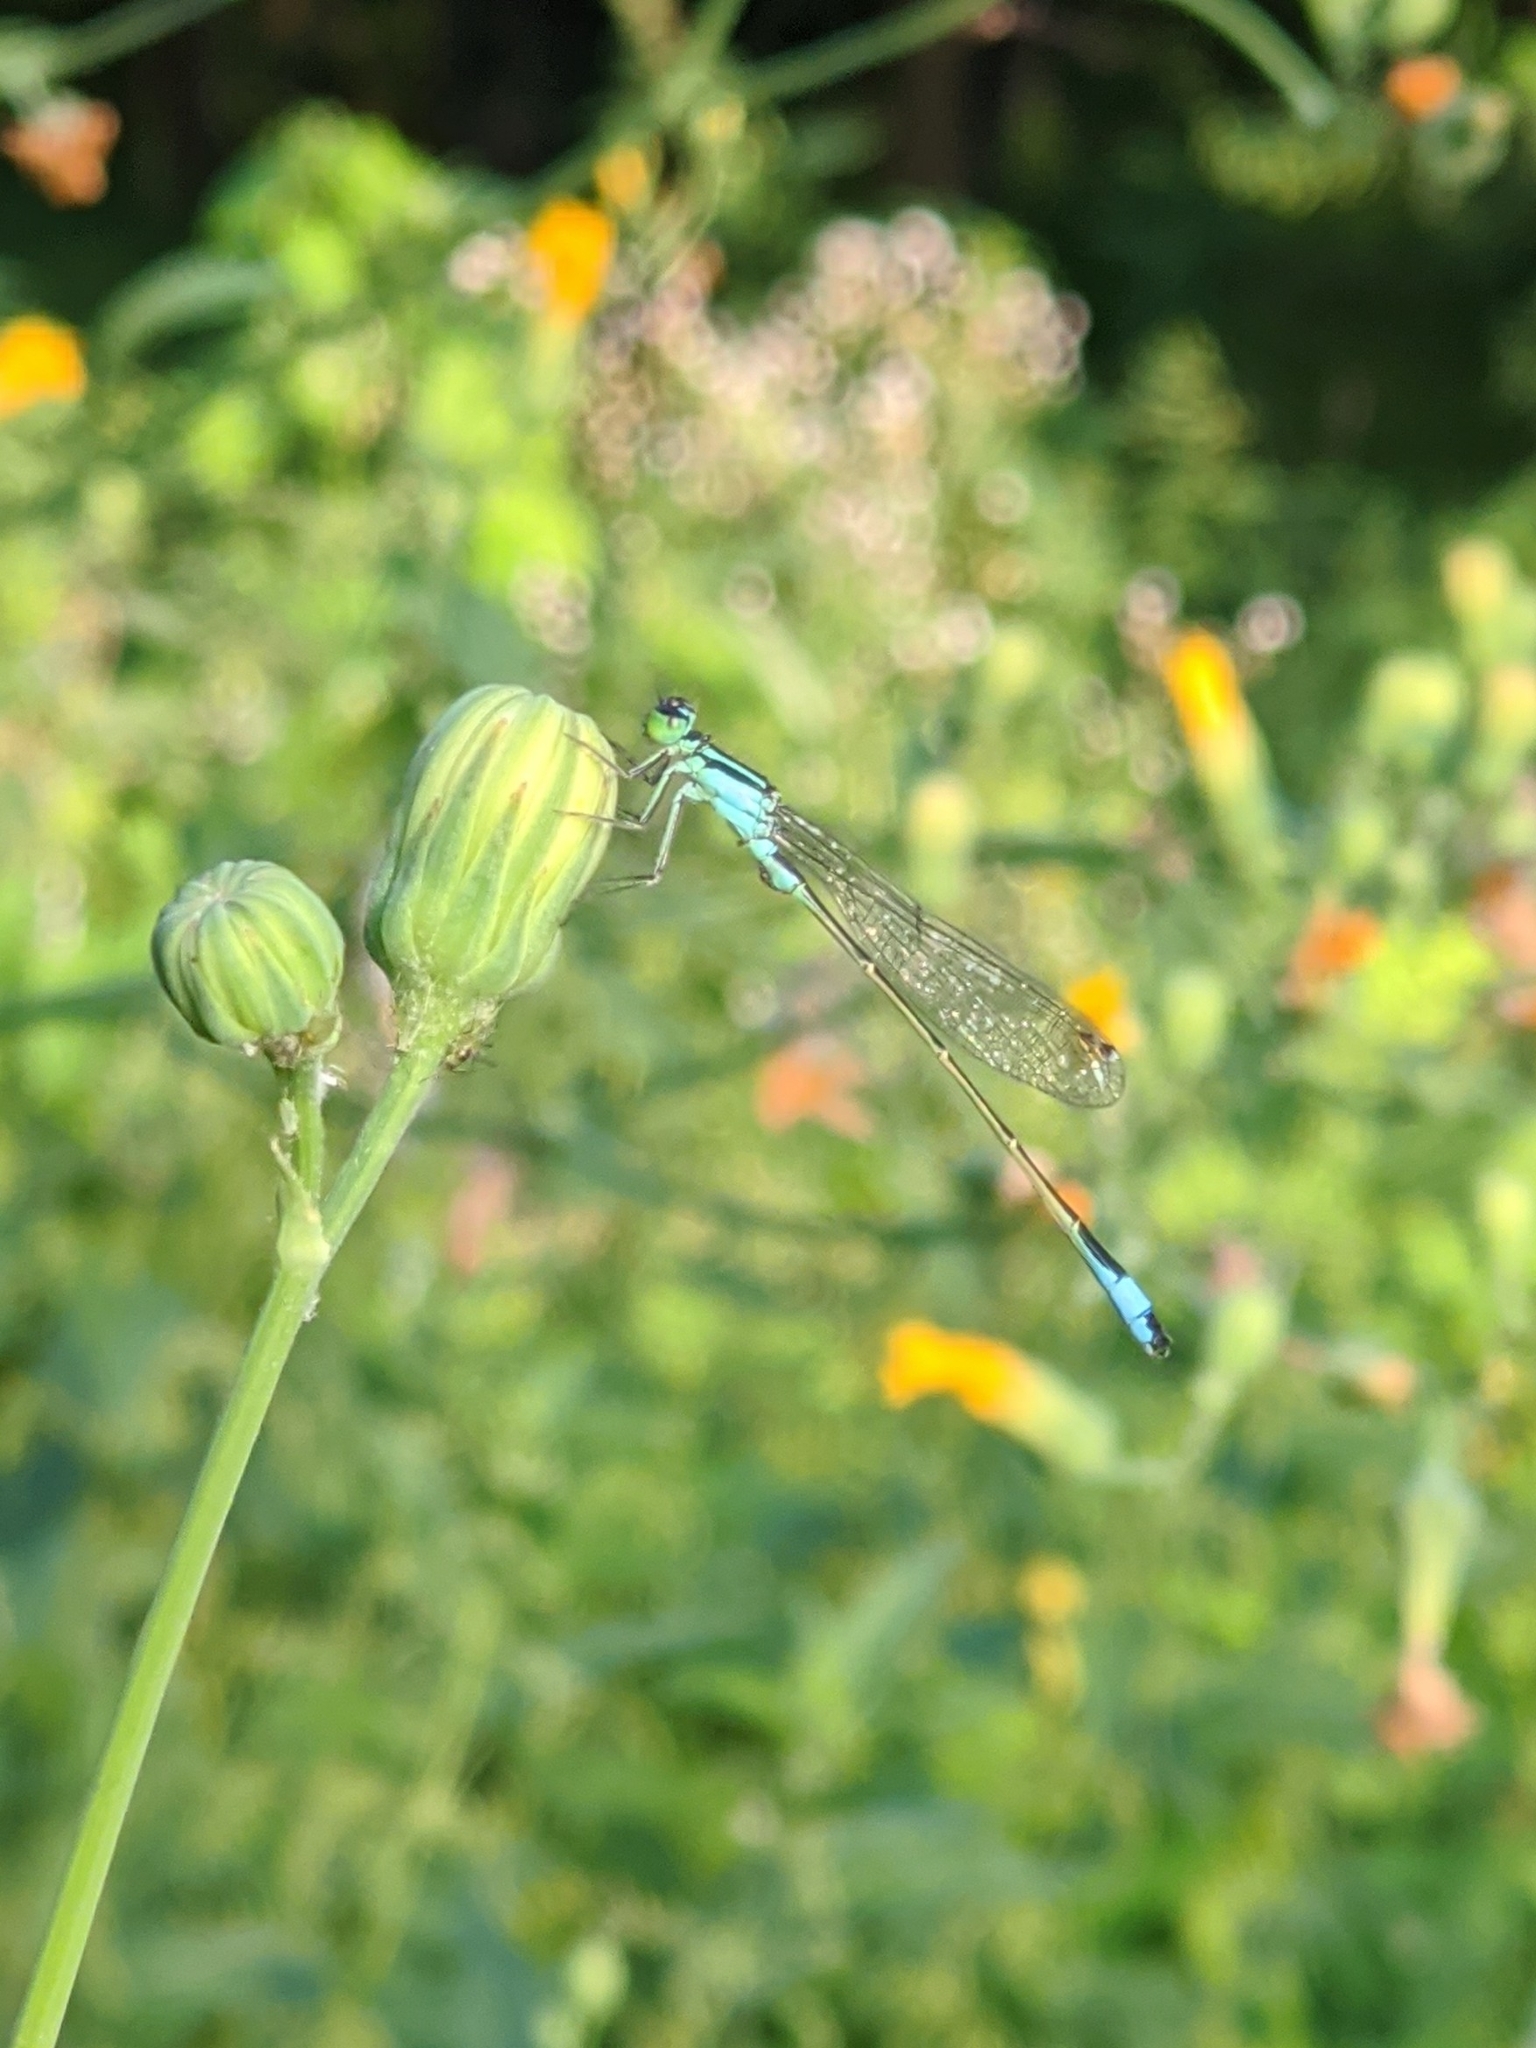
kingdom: Animalia
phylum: Arthropoda
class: Insecta
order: Odonata
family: Coenagrionidae
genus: Ischnura
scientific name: Ischnura elegans
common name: Blue-tailed damselfly
